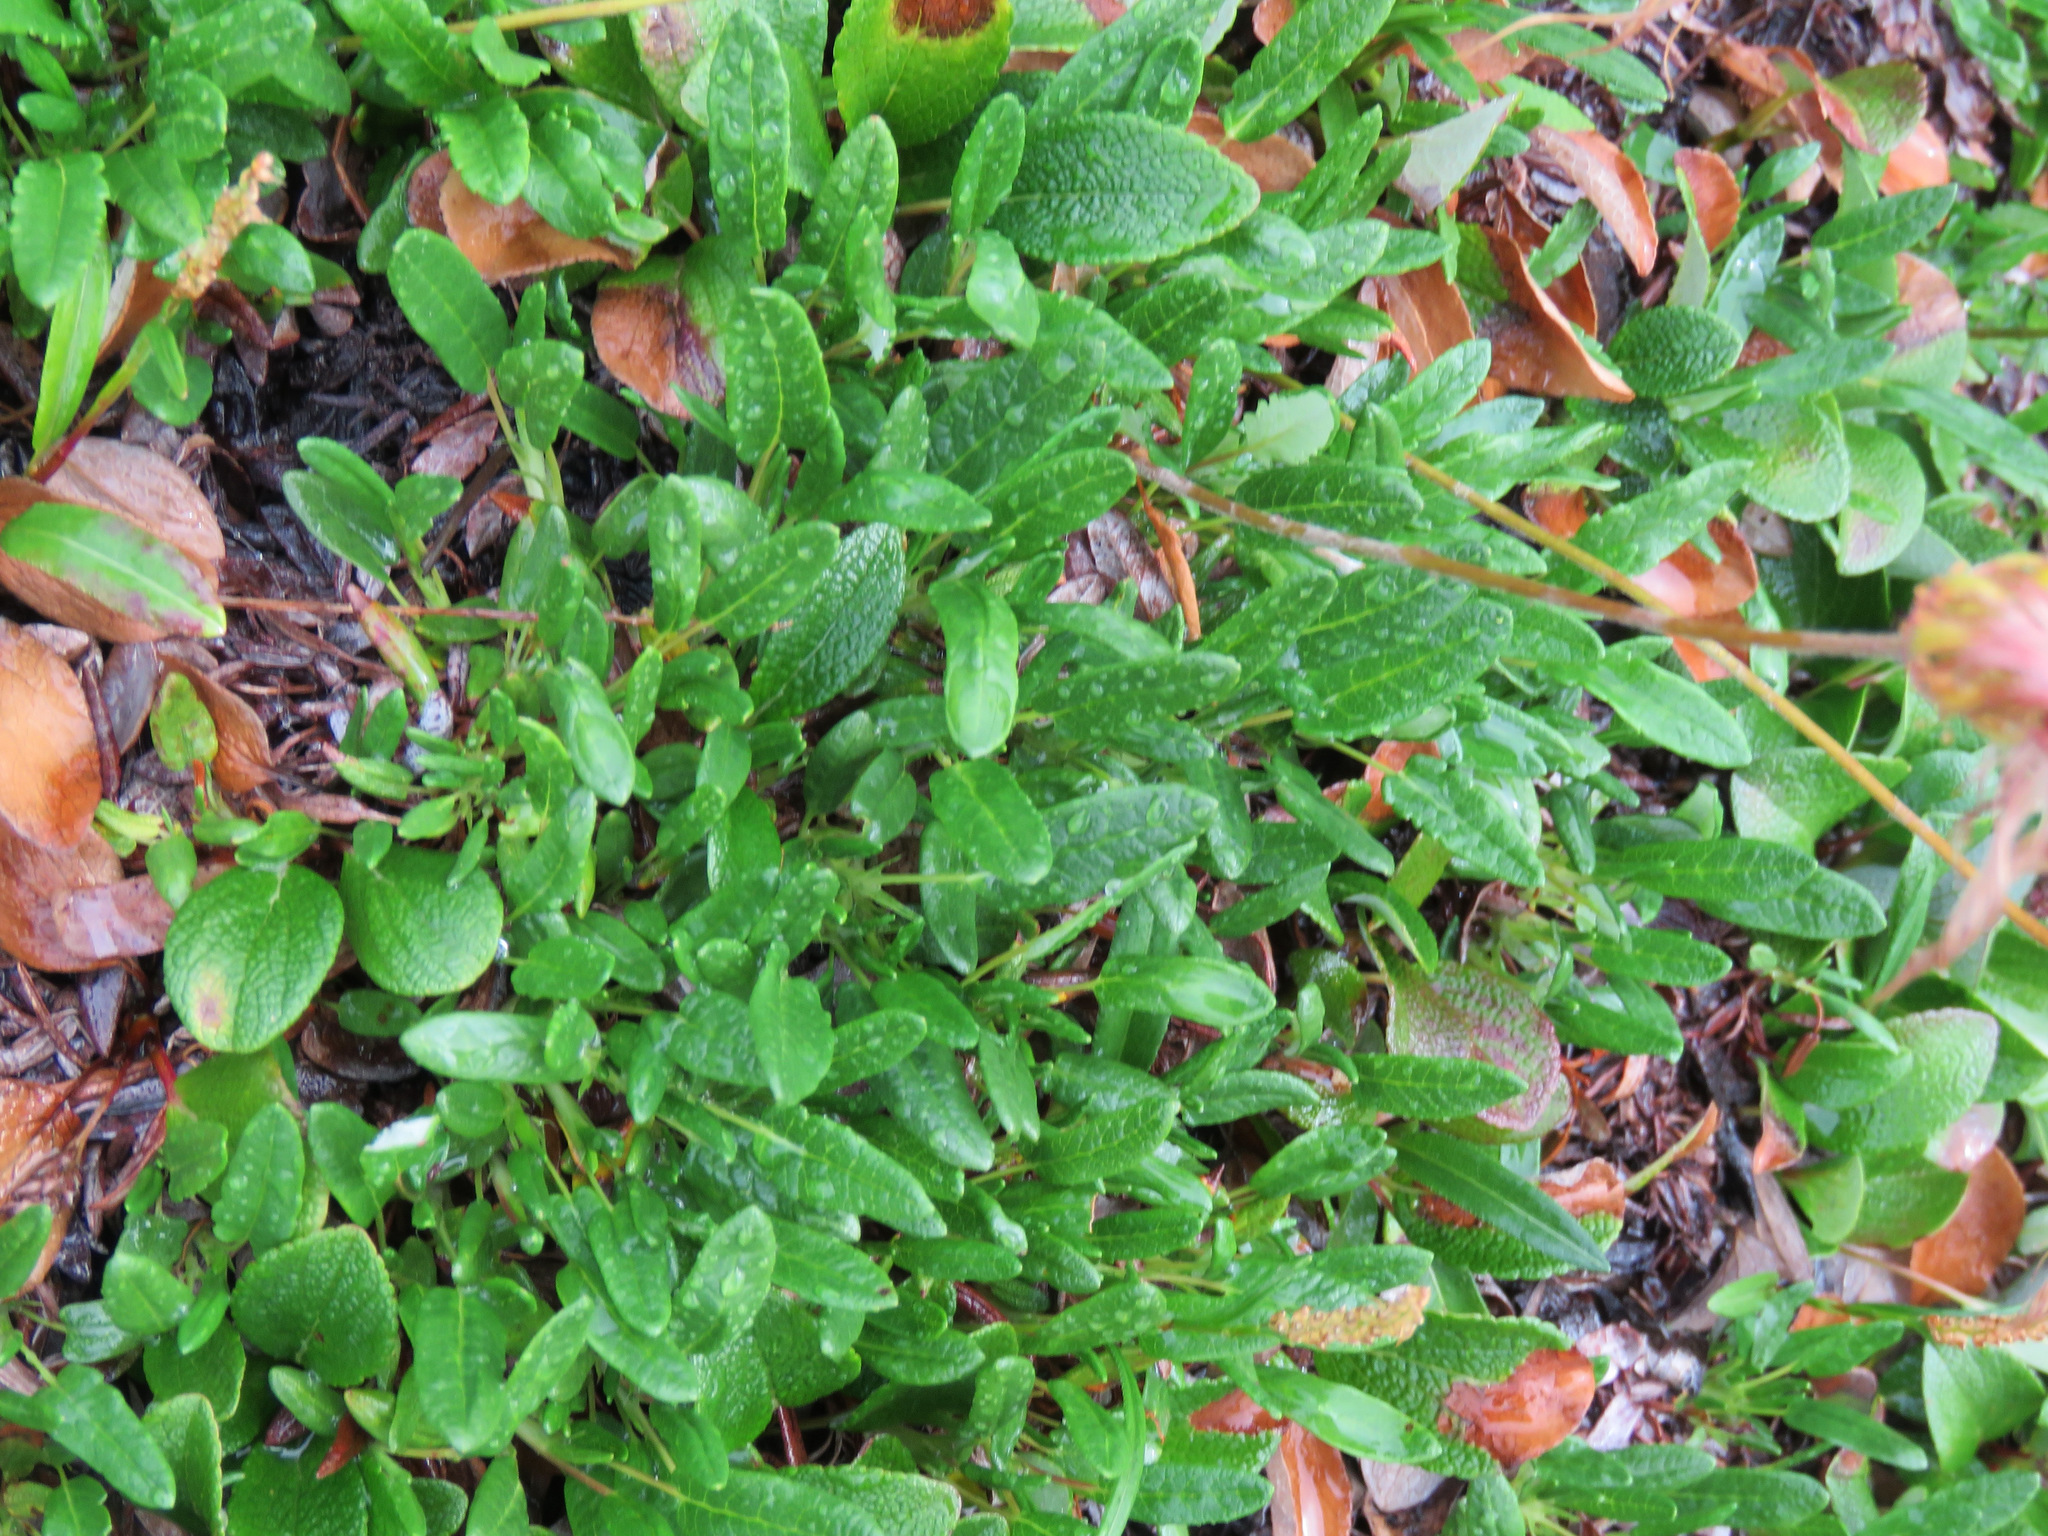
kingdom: Plantae
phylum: Tracheophyta
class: Magnoliopsida
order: Rosales
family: Rosaceae
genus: Dryas
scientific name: Dryas integrifolia
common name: Entire-leaved mountain avens
